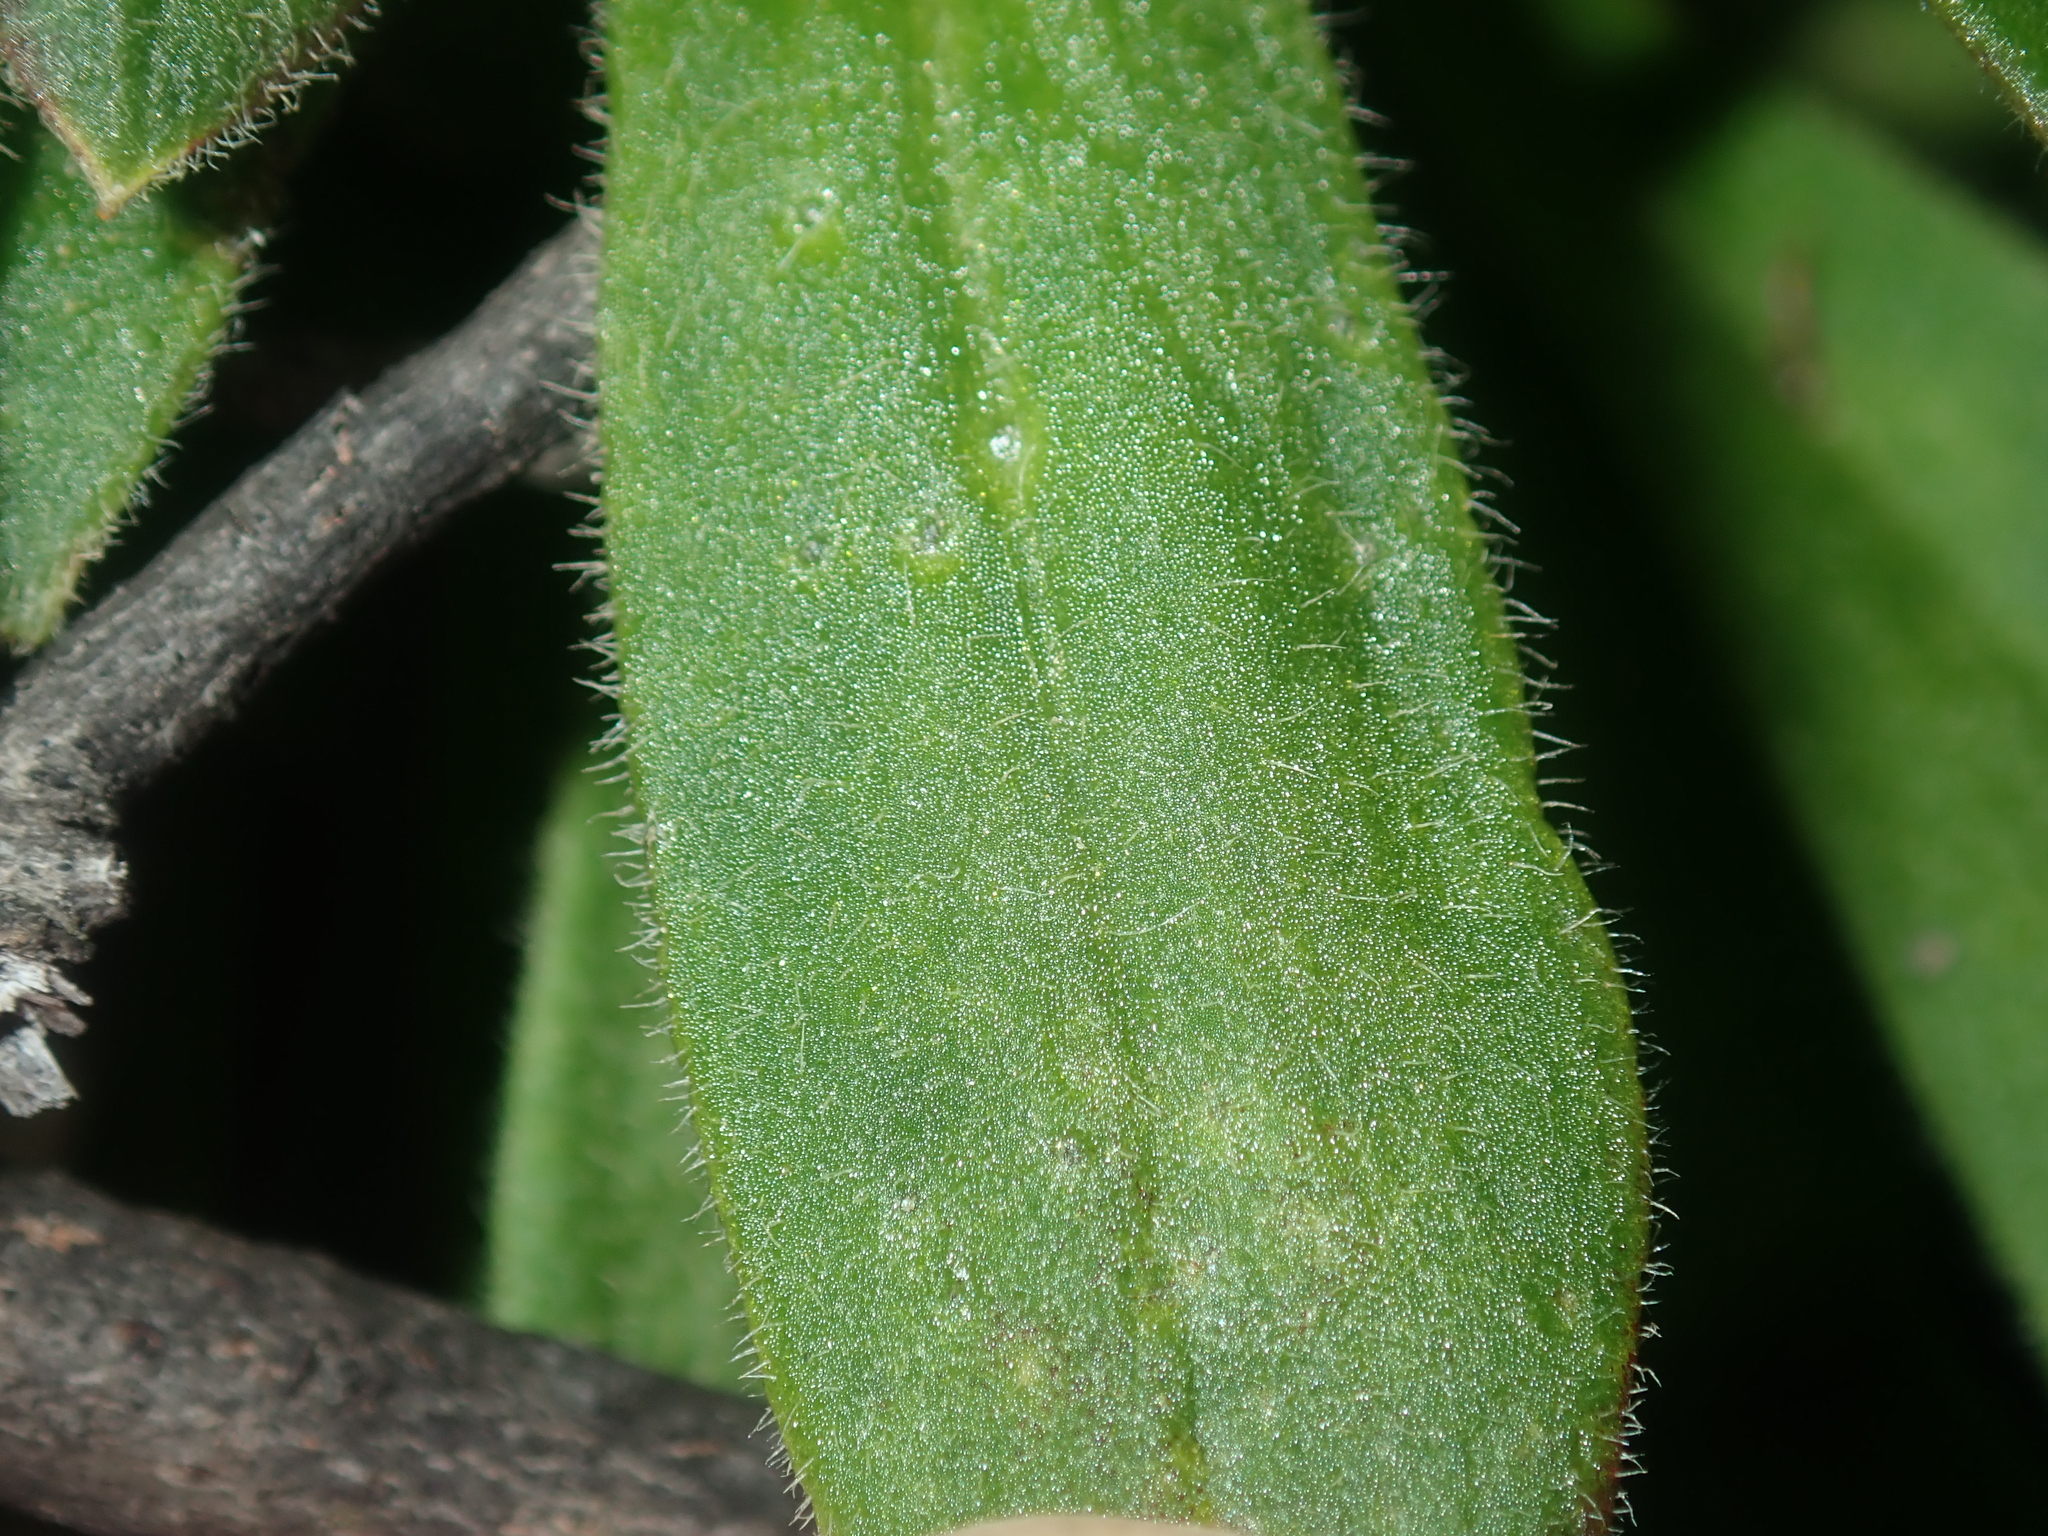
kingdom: Plantae
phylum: Tracheophyta
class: Magnoliopsida
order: Asterales
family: Stylidiaceae
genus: Stylidium
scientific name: Stylidium pycnostachyum
